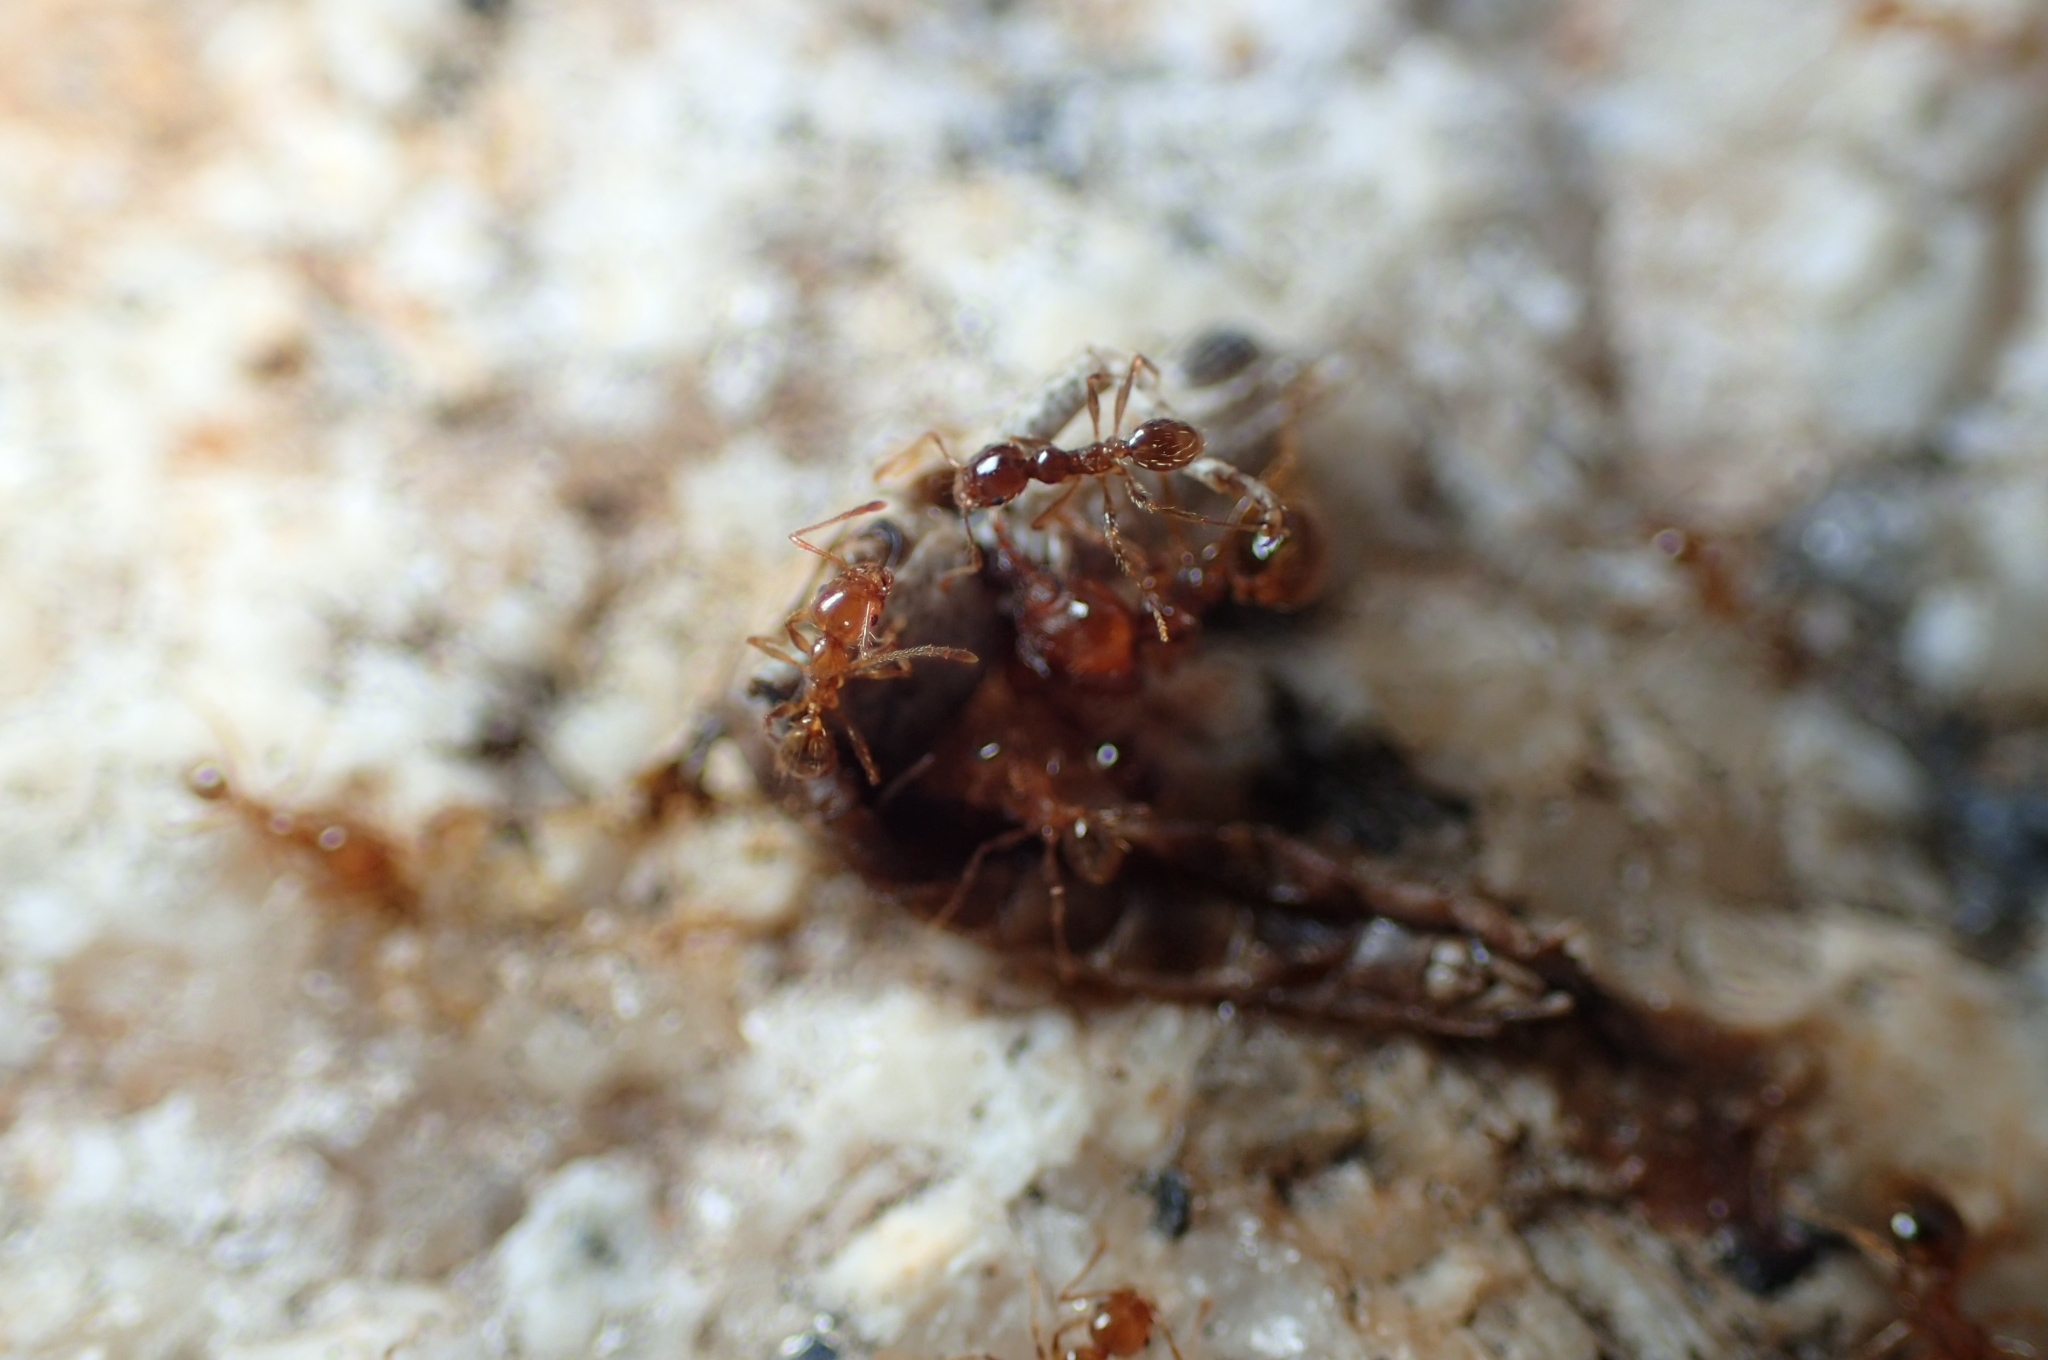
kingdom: Animalia
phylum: Arthropoda
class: Insecta
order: Hymenoptera
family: Formicidae
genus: Pheidole
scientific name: Pheidole pallidula
